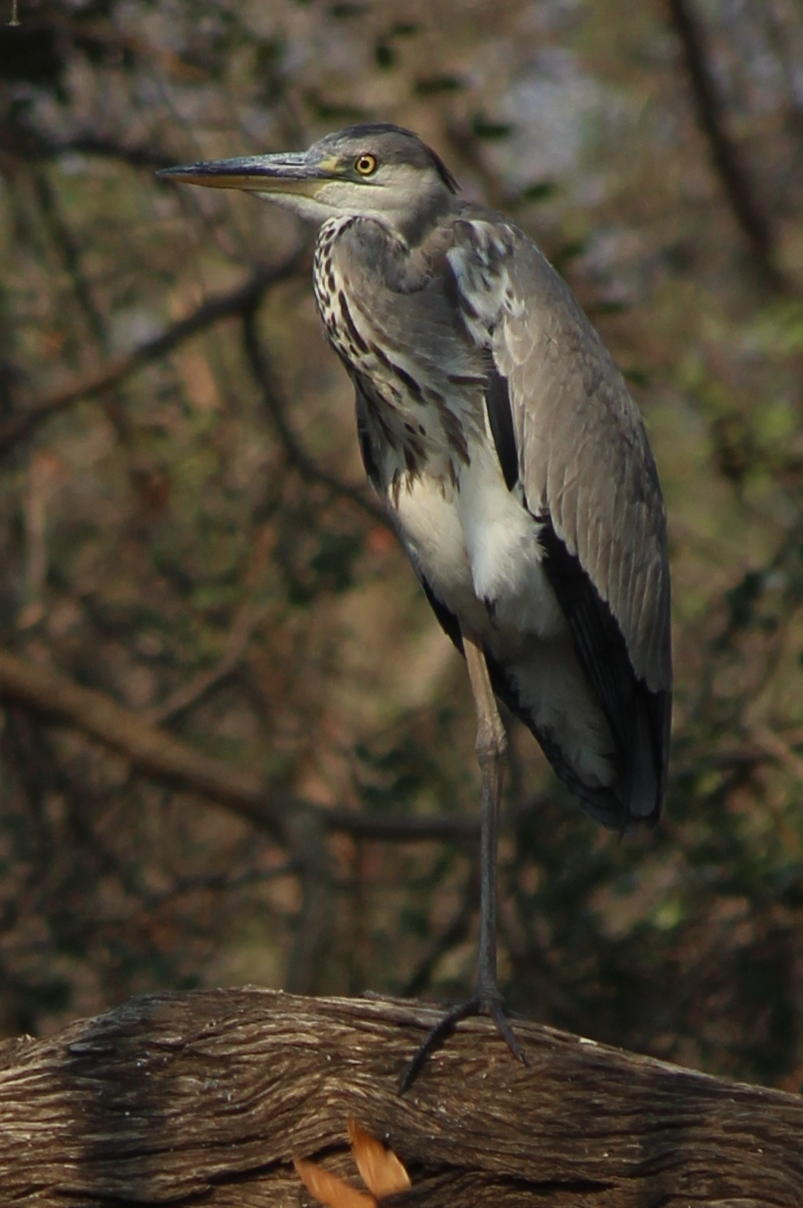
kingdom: Animalia
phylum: Chordata
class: Aves
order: Pelecaniformes
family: Ardeidae
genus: Ardea
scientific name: Ardea cinerea
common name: Grey heron
